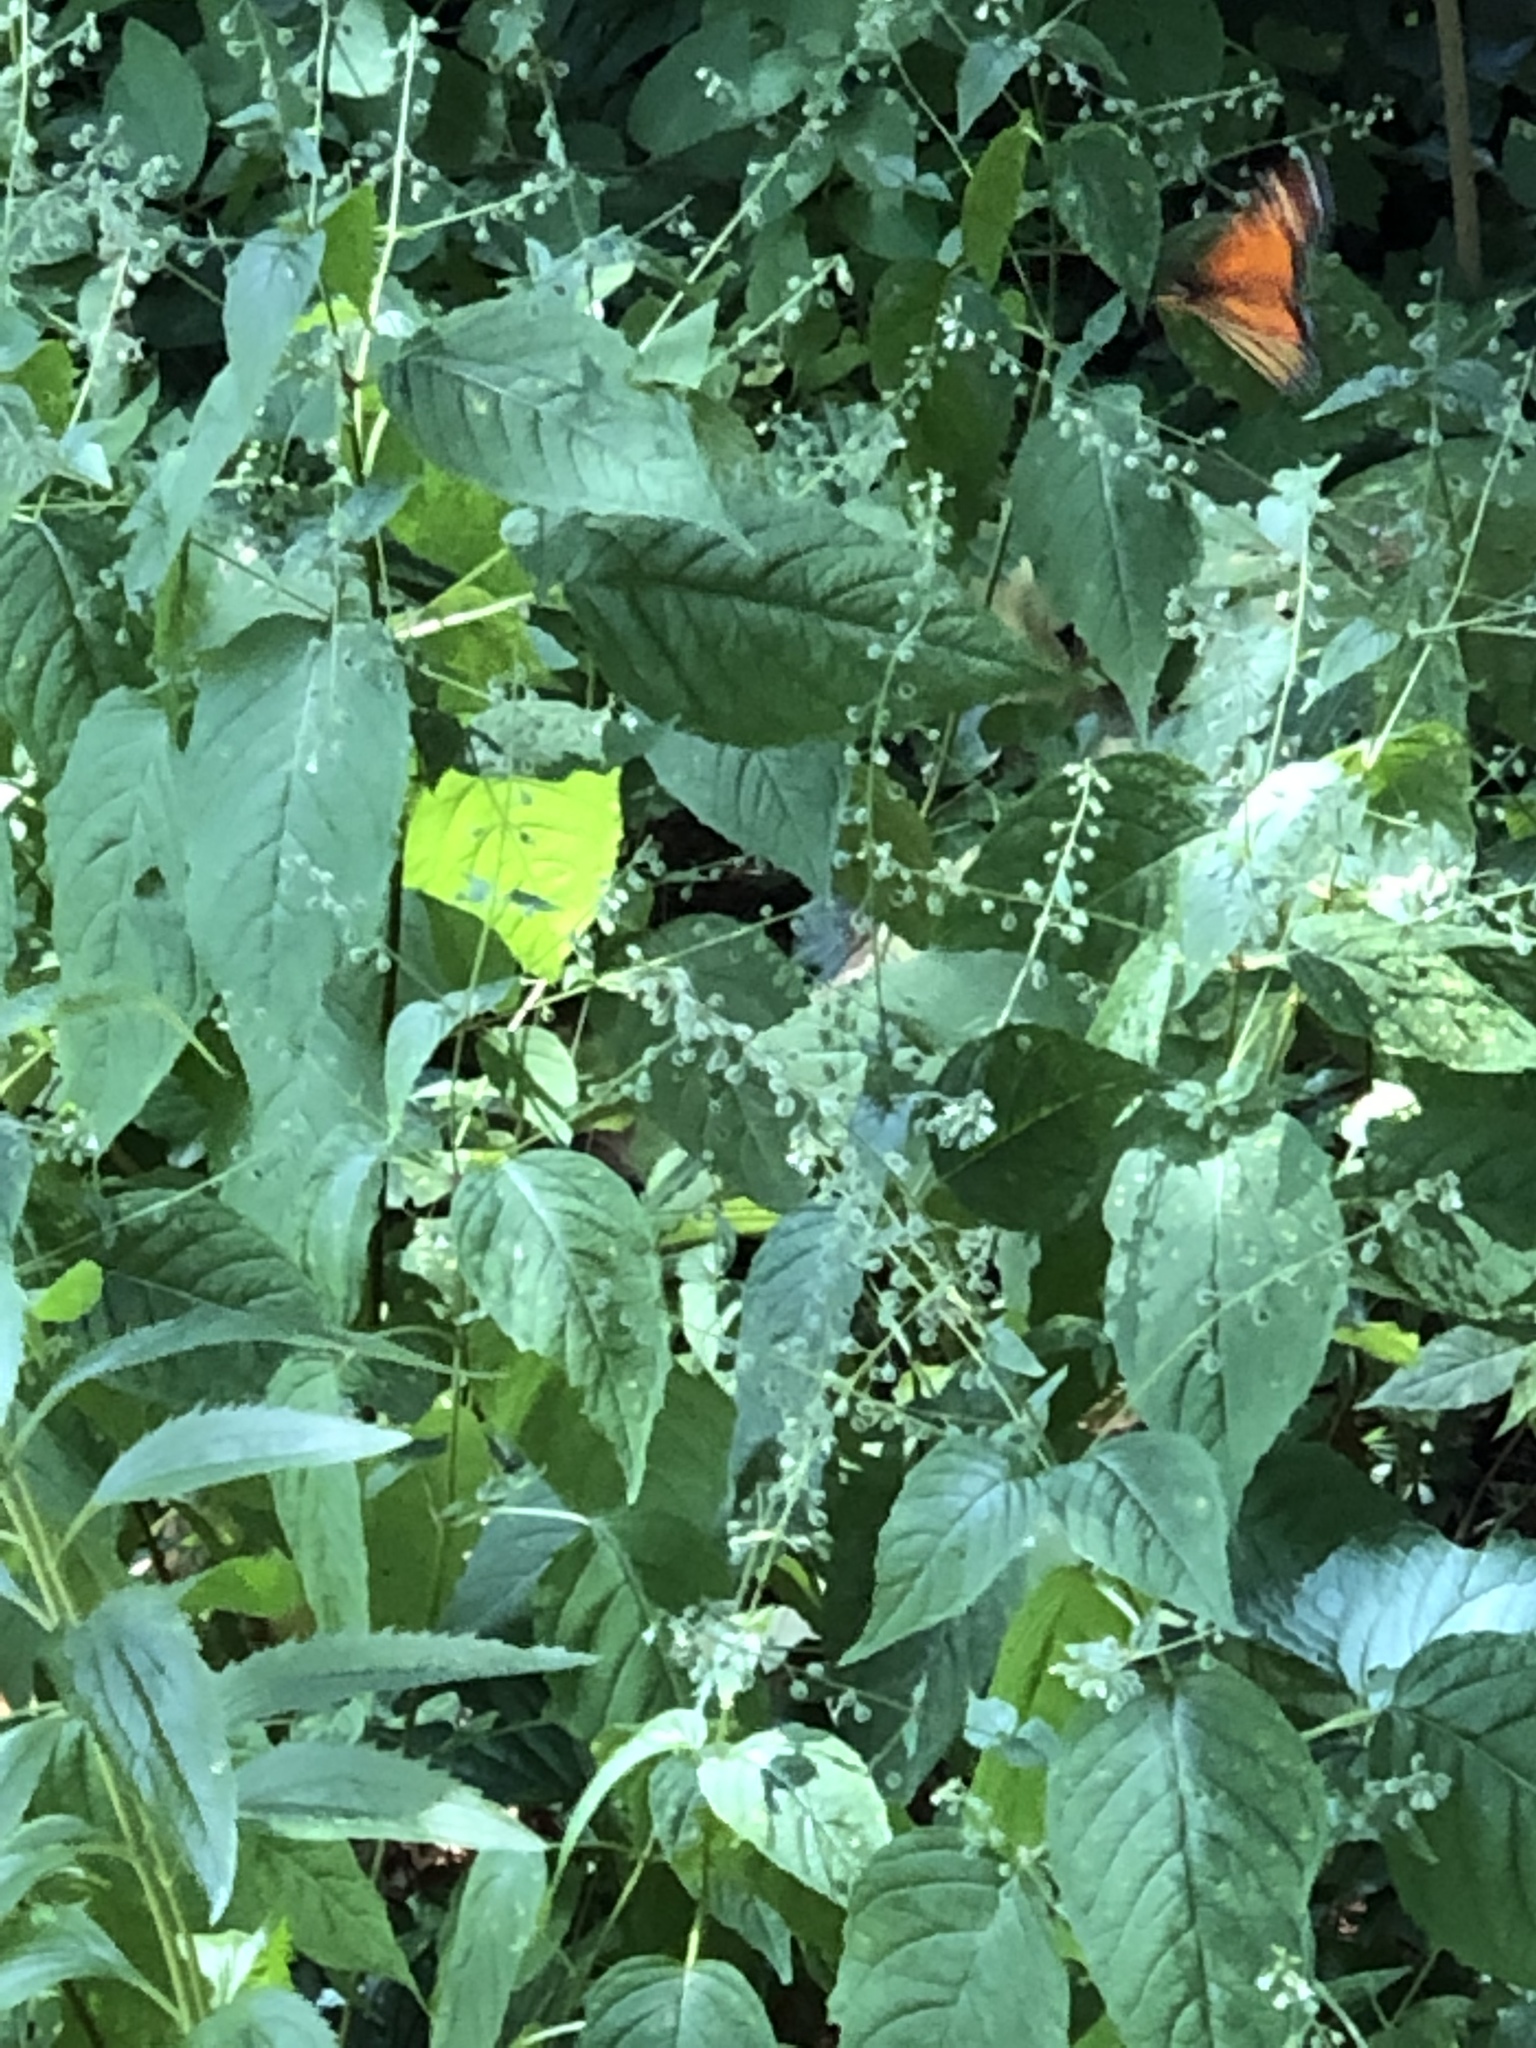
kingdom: Animalia
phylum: Arthropoda
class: Insecta
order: Lepidoptera
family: Nymphalidae
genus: Danaus
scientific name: Danaus plexippus
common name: Monarch
